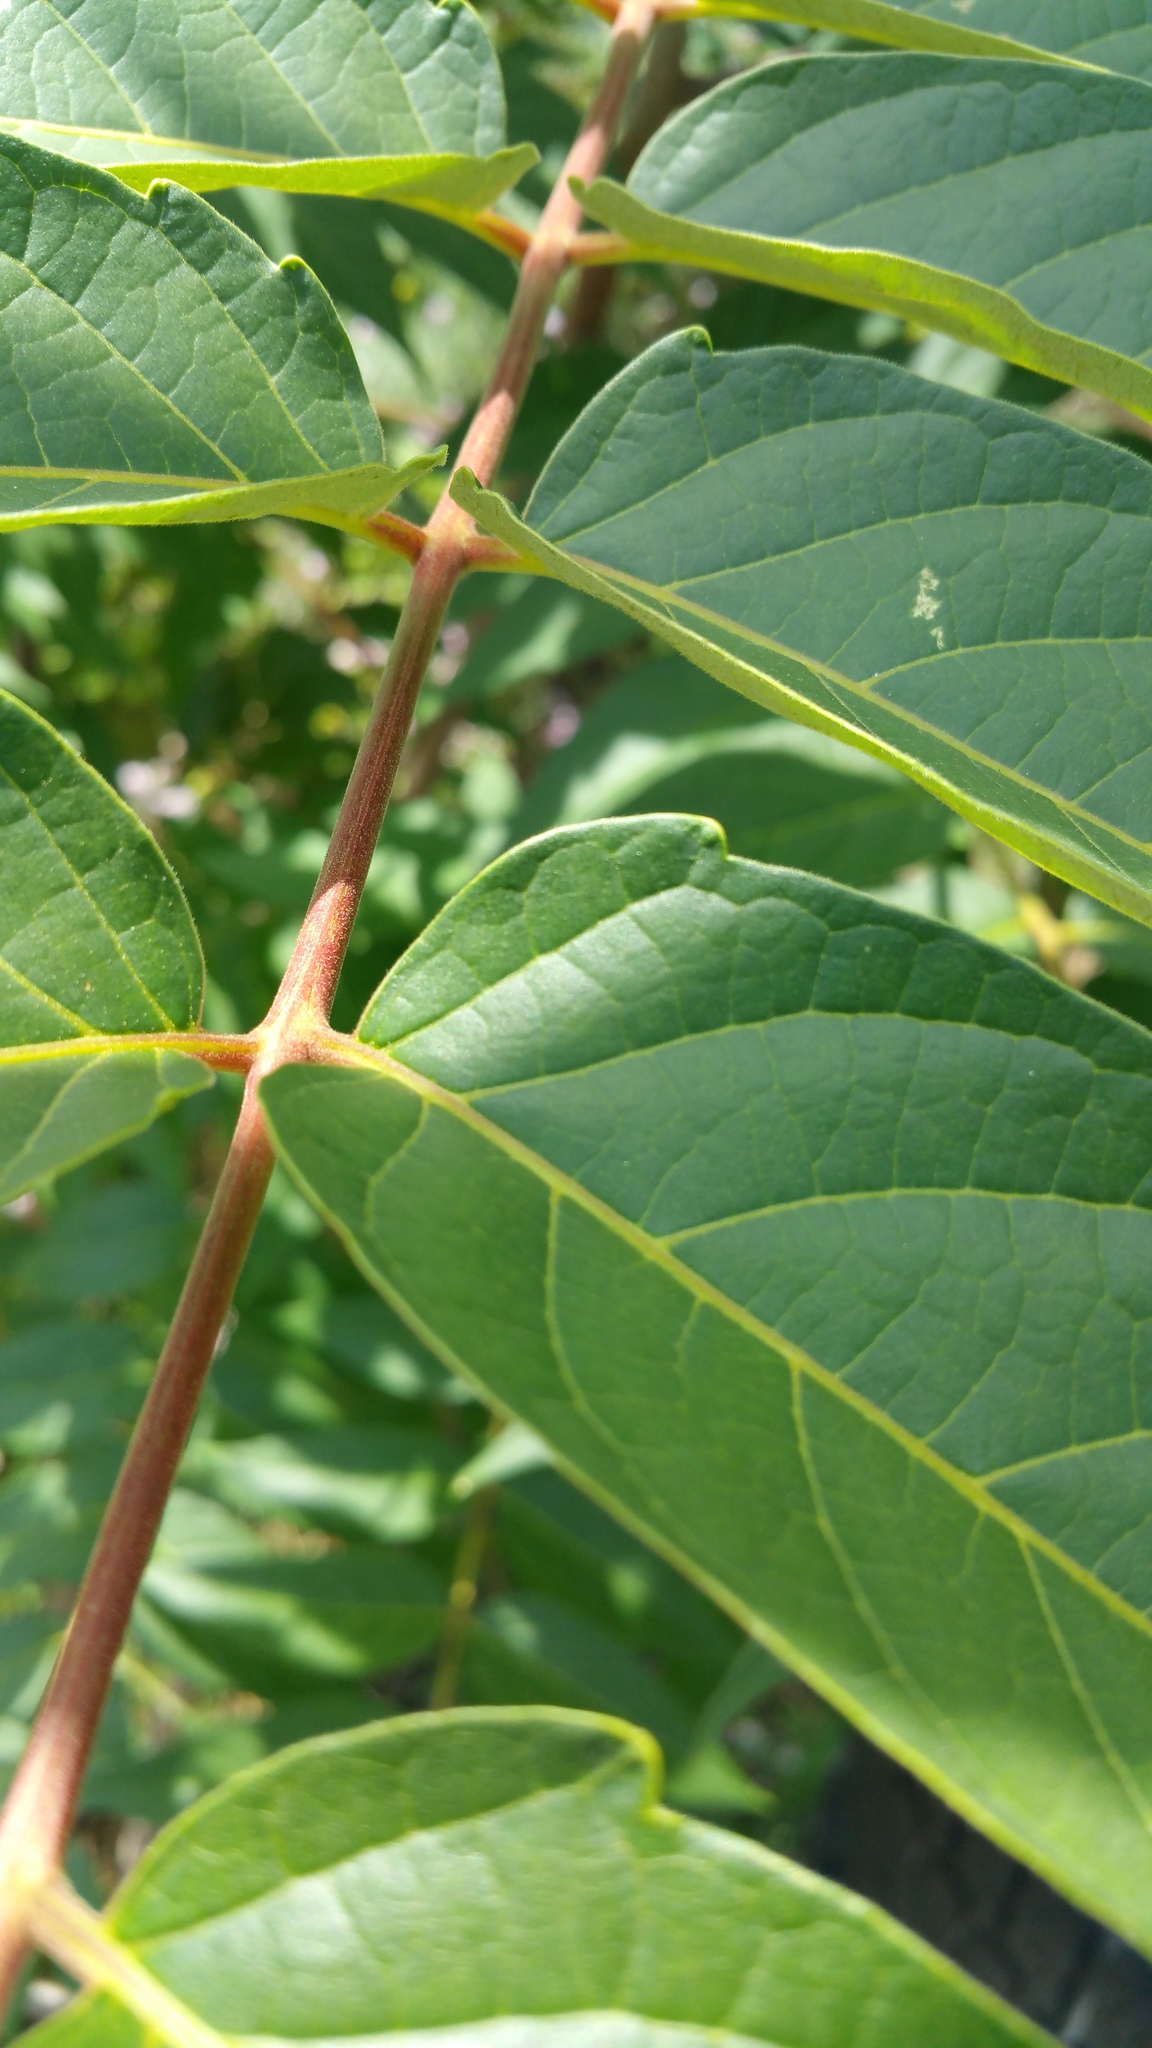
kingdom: Plantae
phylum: Tracheophyta
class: Magnoliopsida
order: Sapindales
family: Simaroubaceae
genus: Ailanthus
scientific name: Ailanthus altissima
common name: Tree-of-heaven
